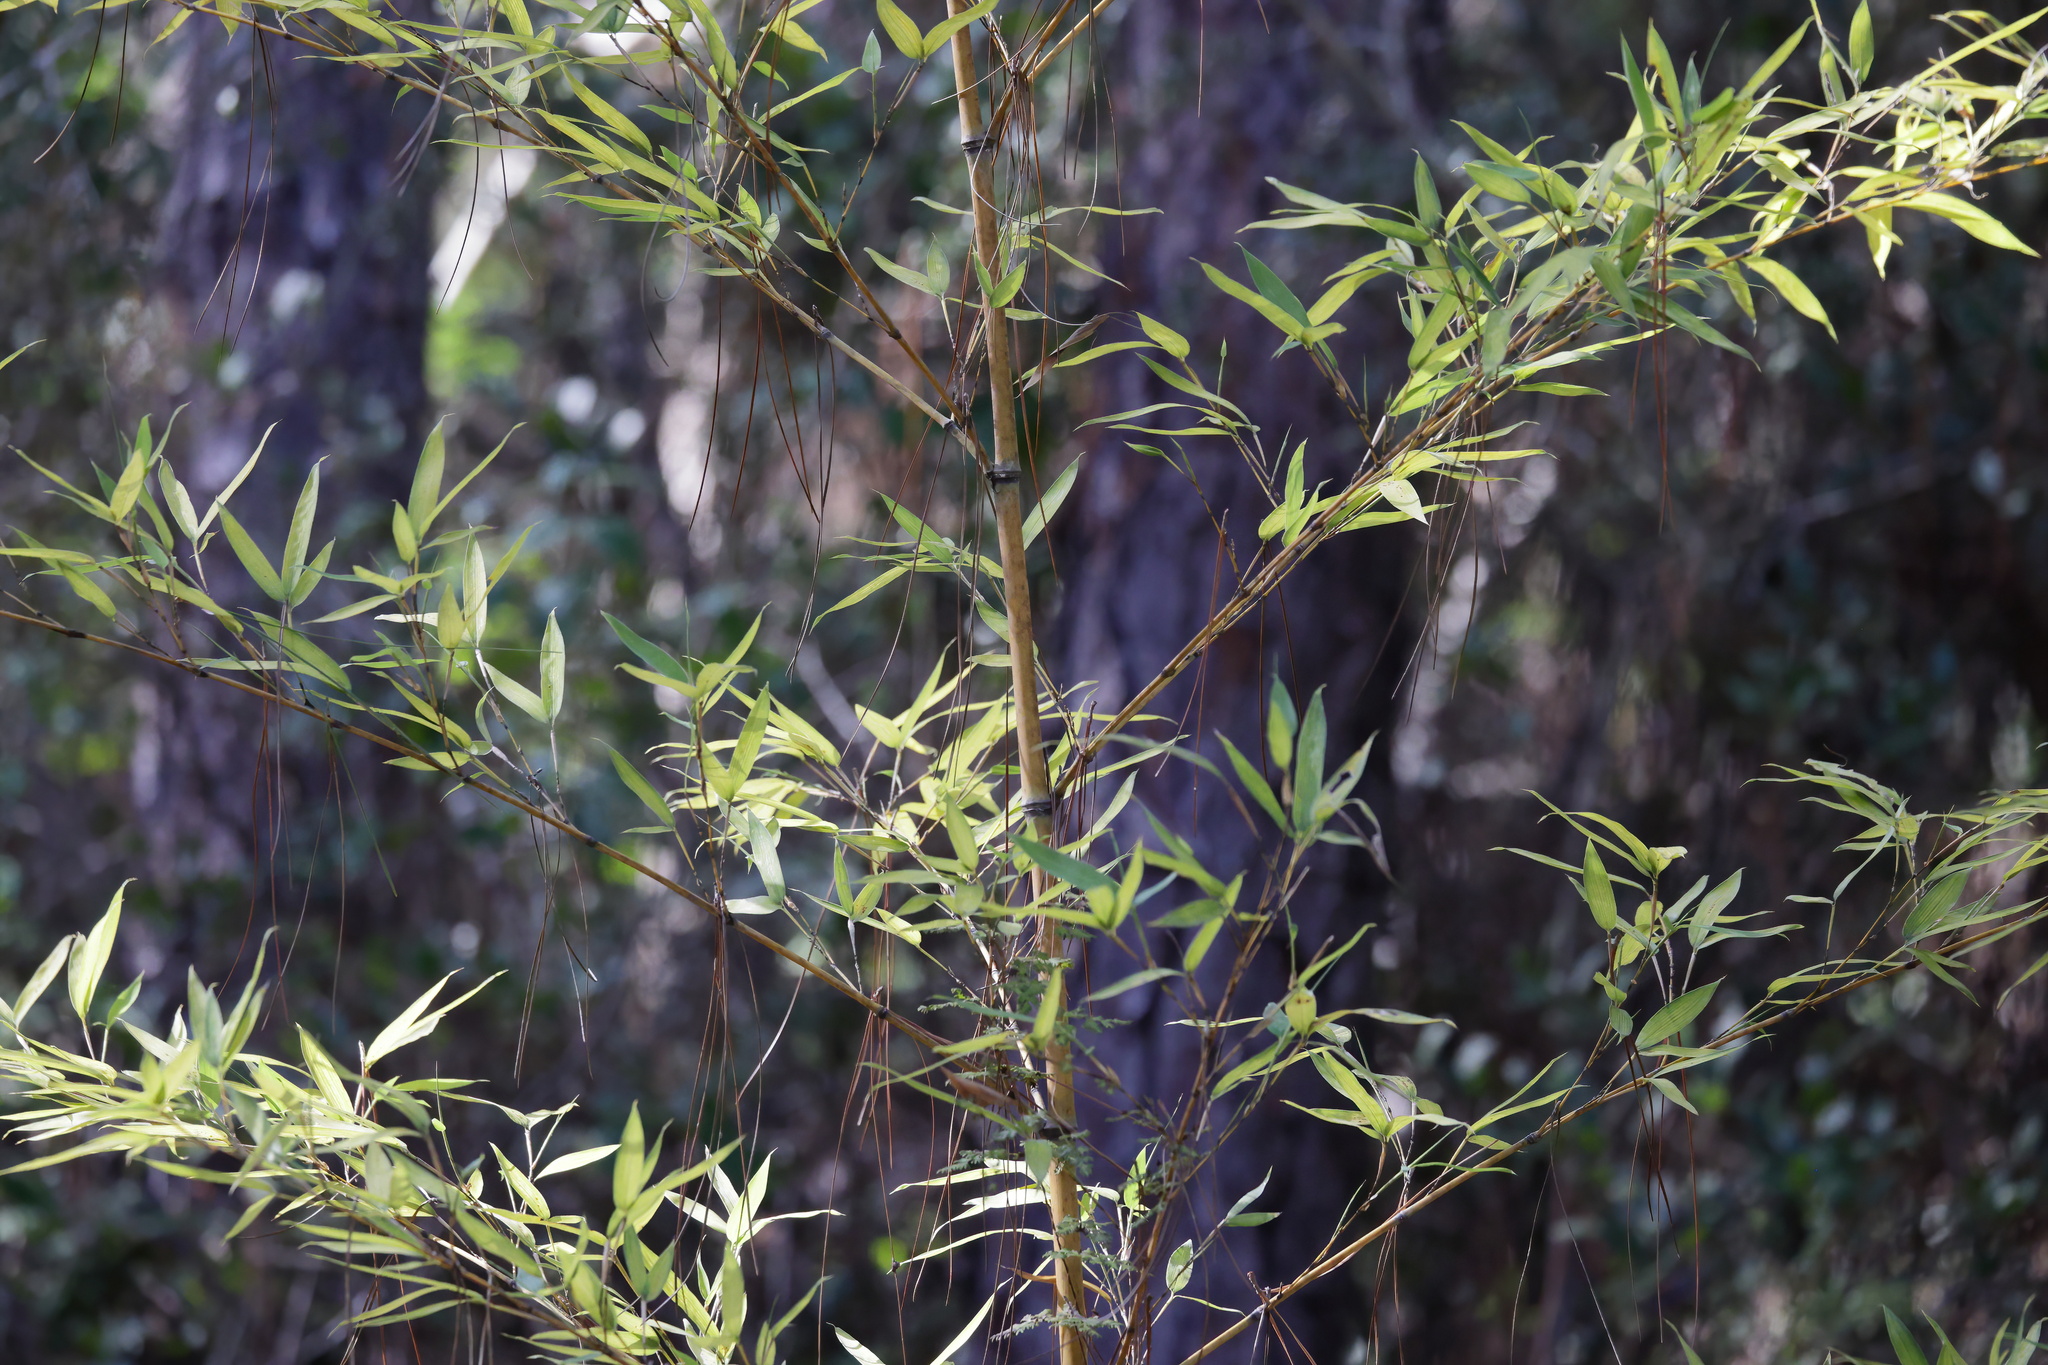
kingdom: Plantae
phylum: Tracheophyta
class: Liliopsida
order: Poales
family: Poaceae
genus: Phyllostachys
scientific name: Phyllostachys aurea
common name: Golden bamboo
